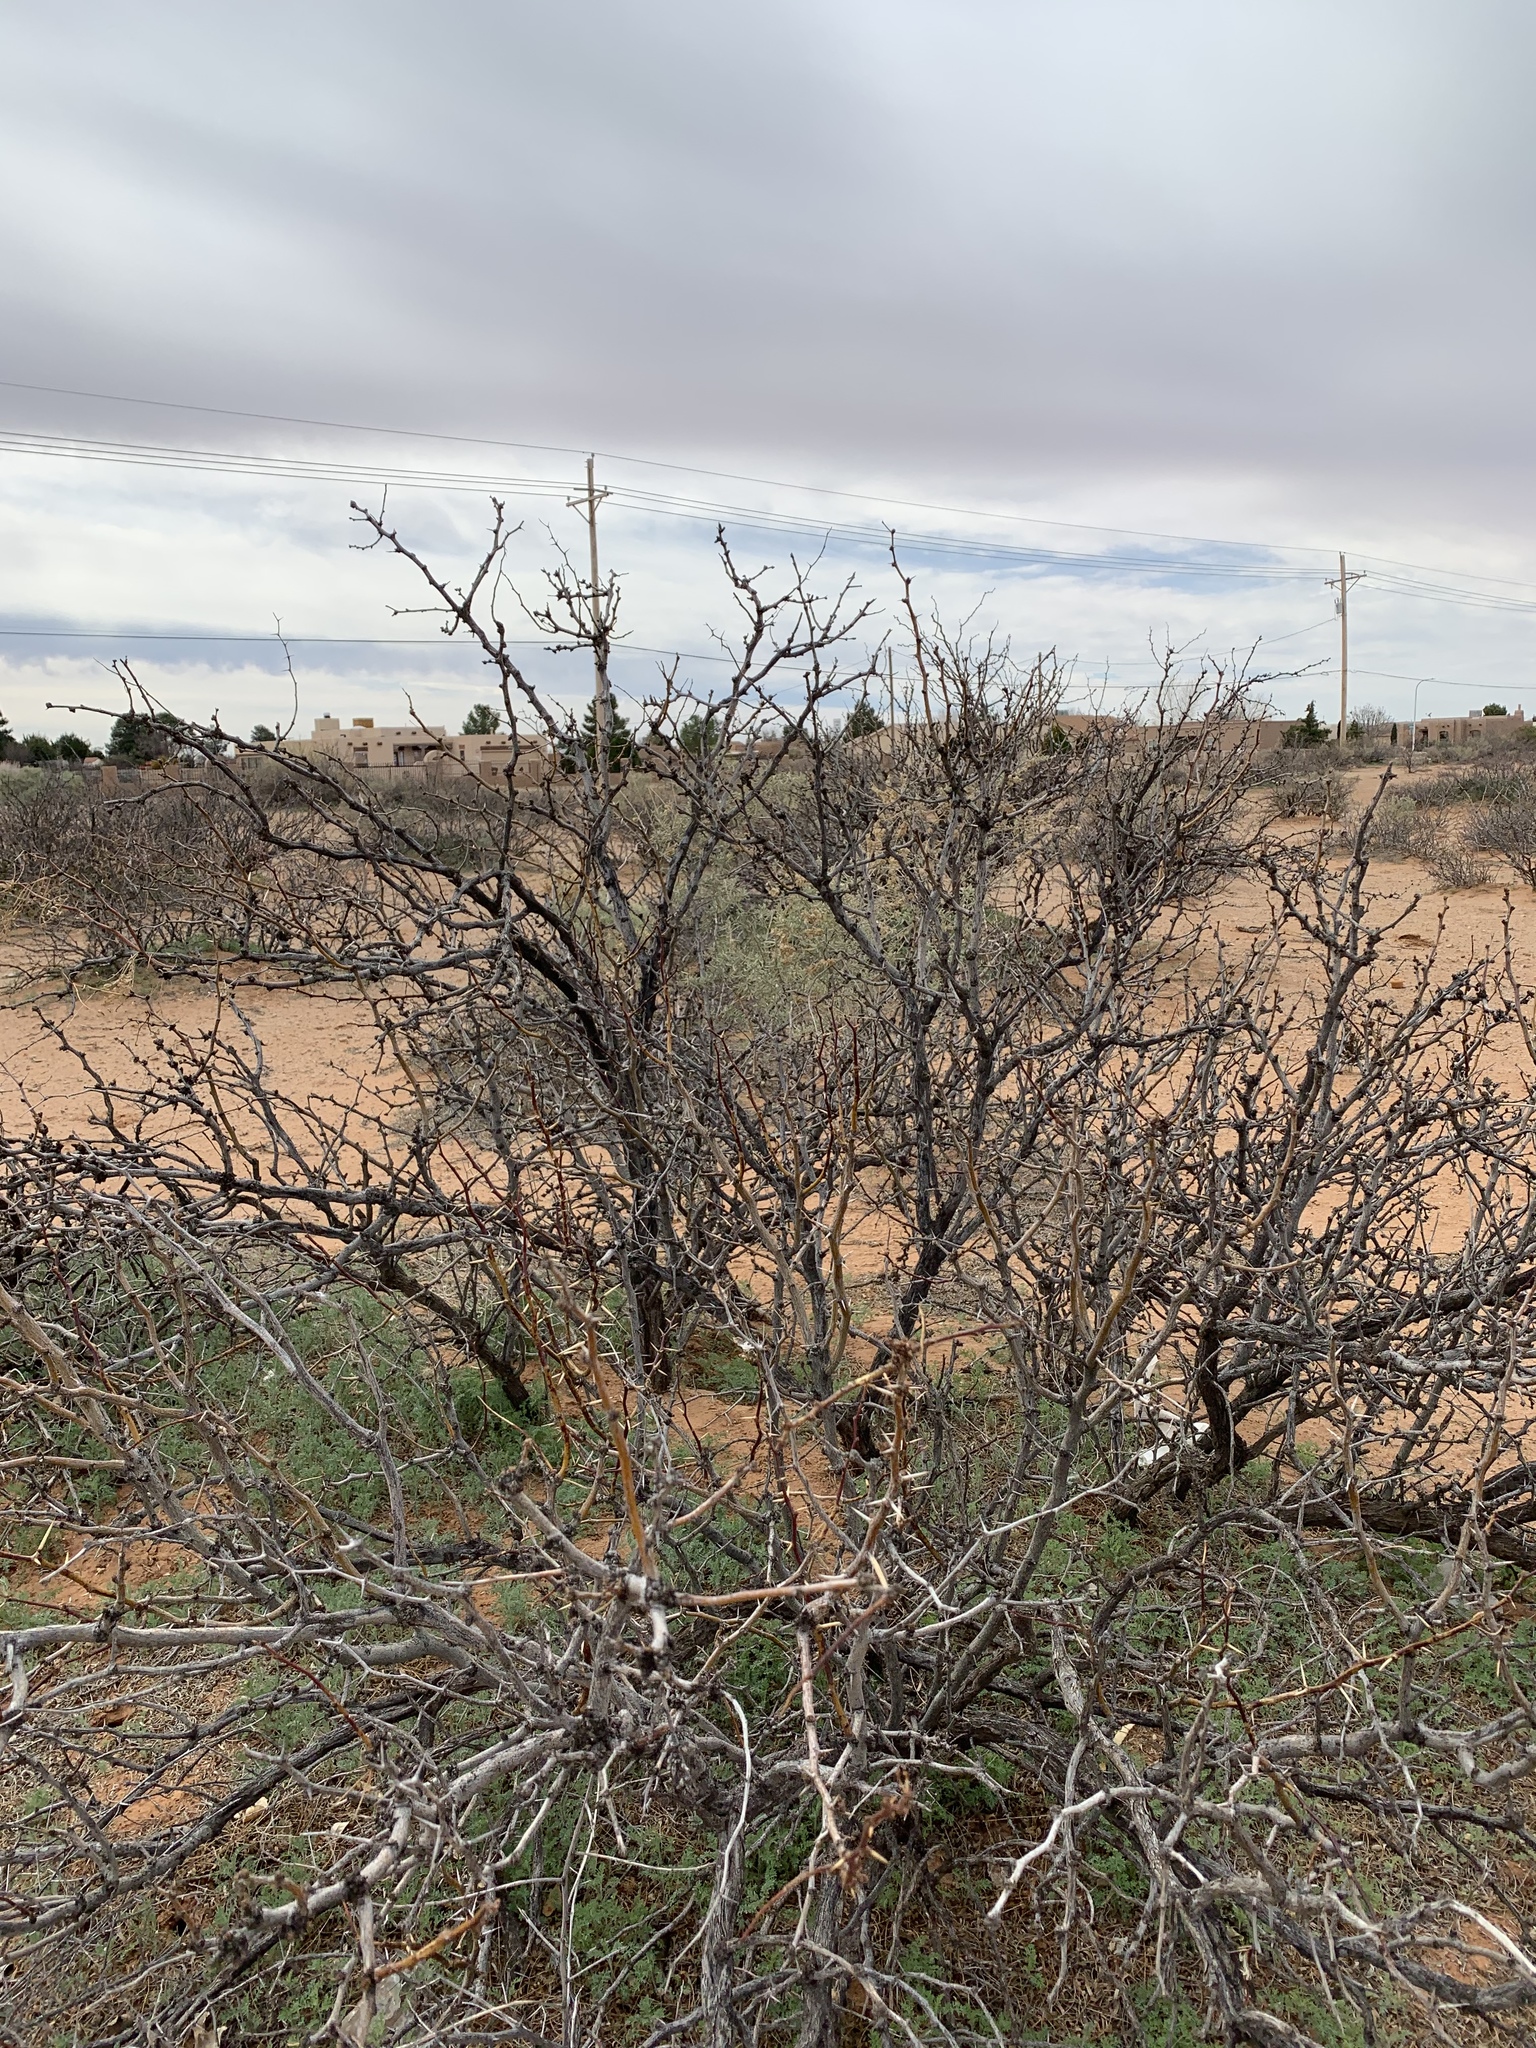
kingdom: Plantae
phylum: Tracheophyta
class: Magnoliopsida
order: Fabales
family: Fabaceae
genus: Prosopis
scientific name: Prosopis glandulosa
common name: Honey mesquite
